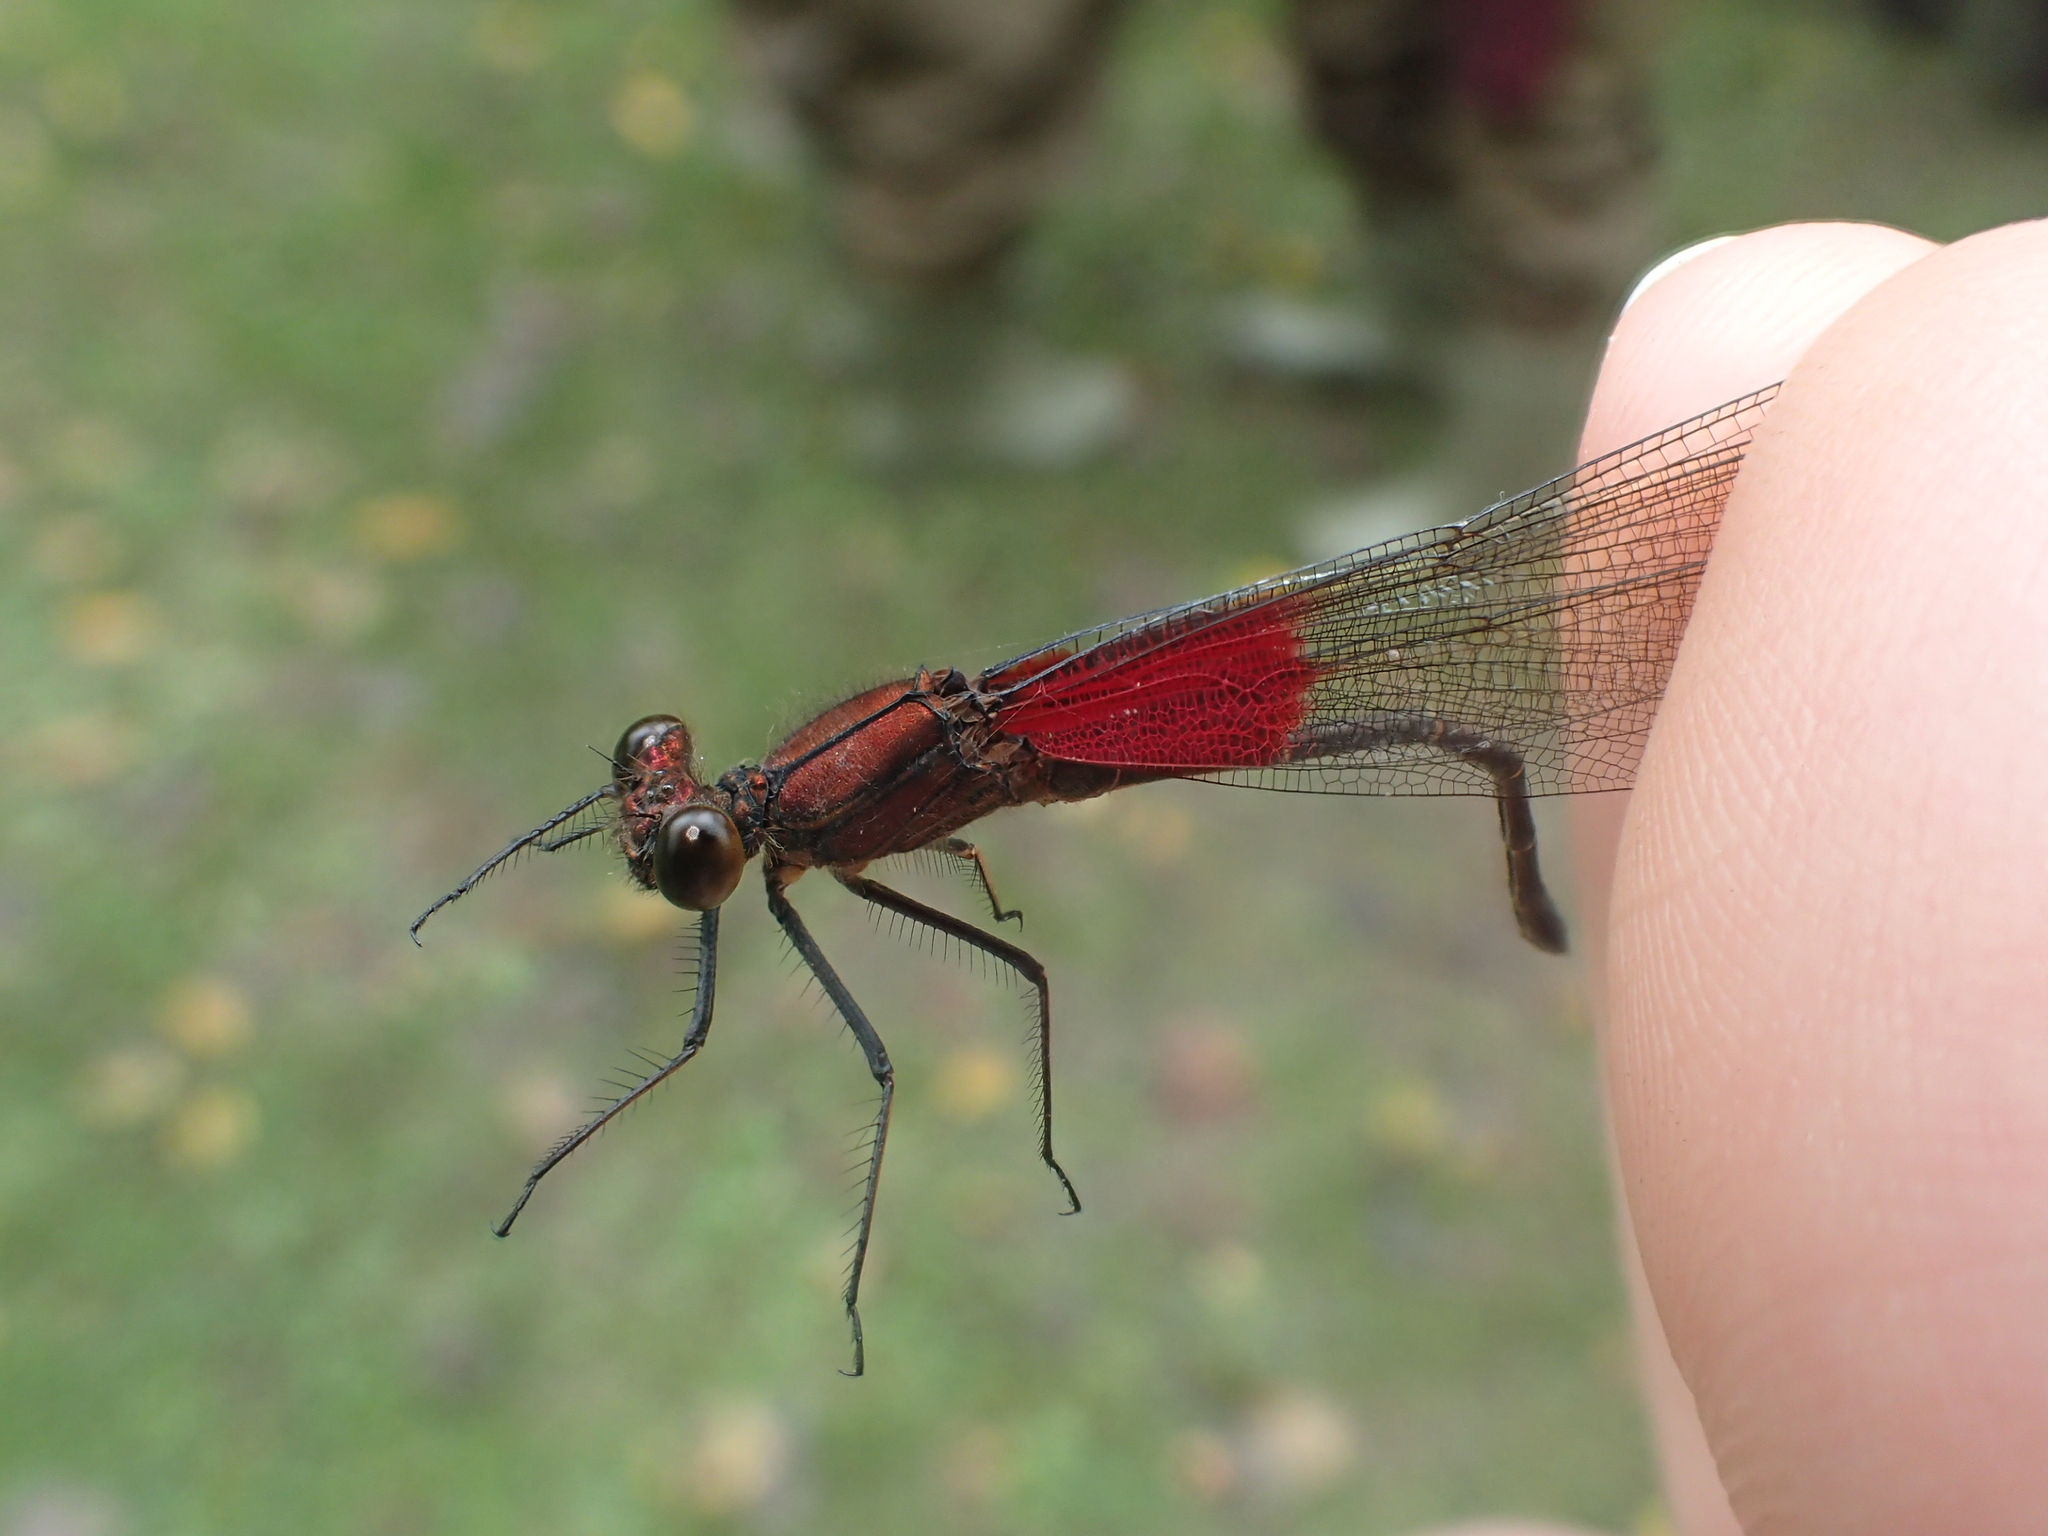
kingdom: Animalia
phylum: Arthropoda
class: Insecta
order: Odonata
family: Calopterygidae
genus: Hetaerina
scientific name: Hetaerina americana
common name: American rubyspot
